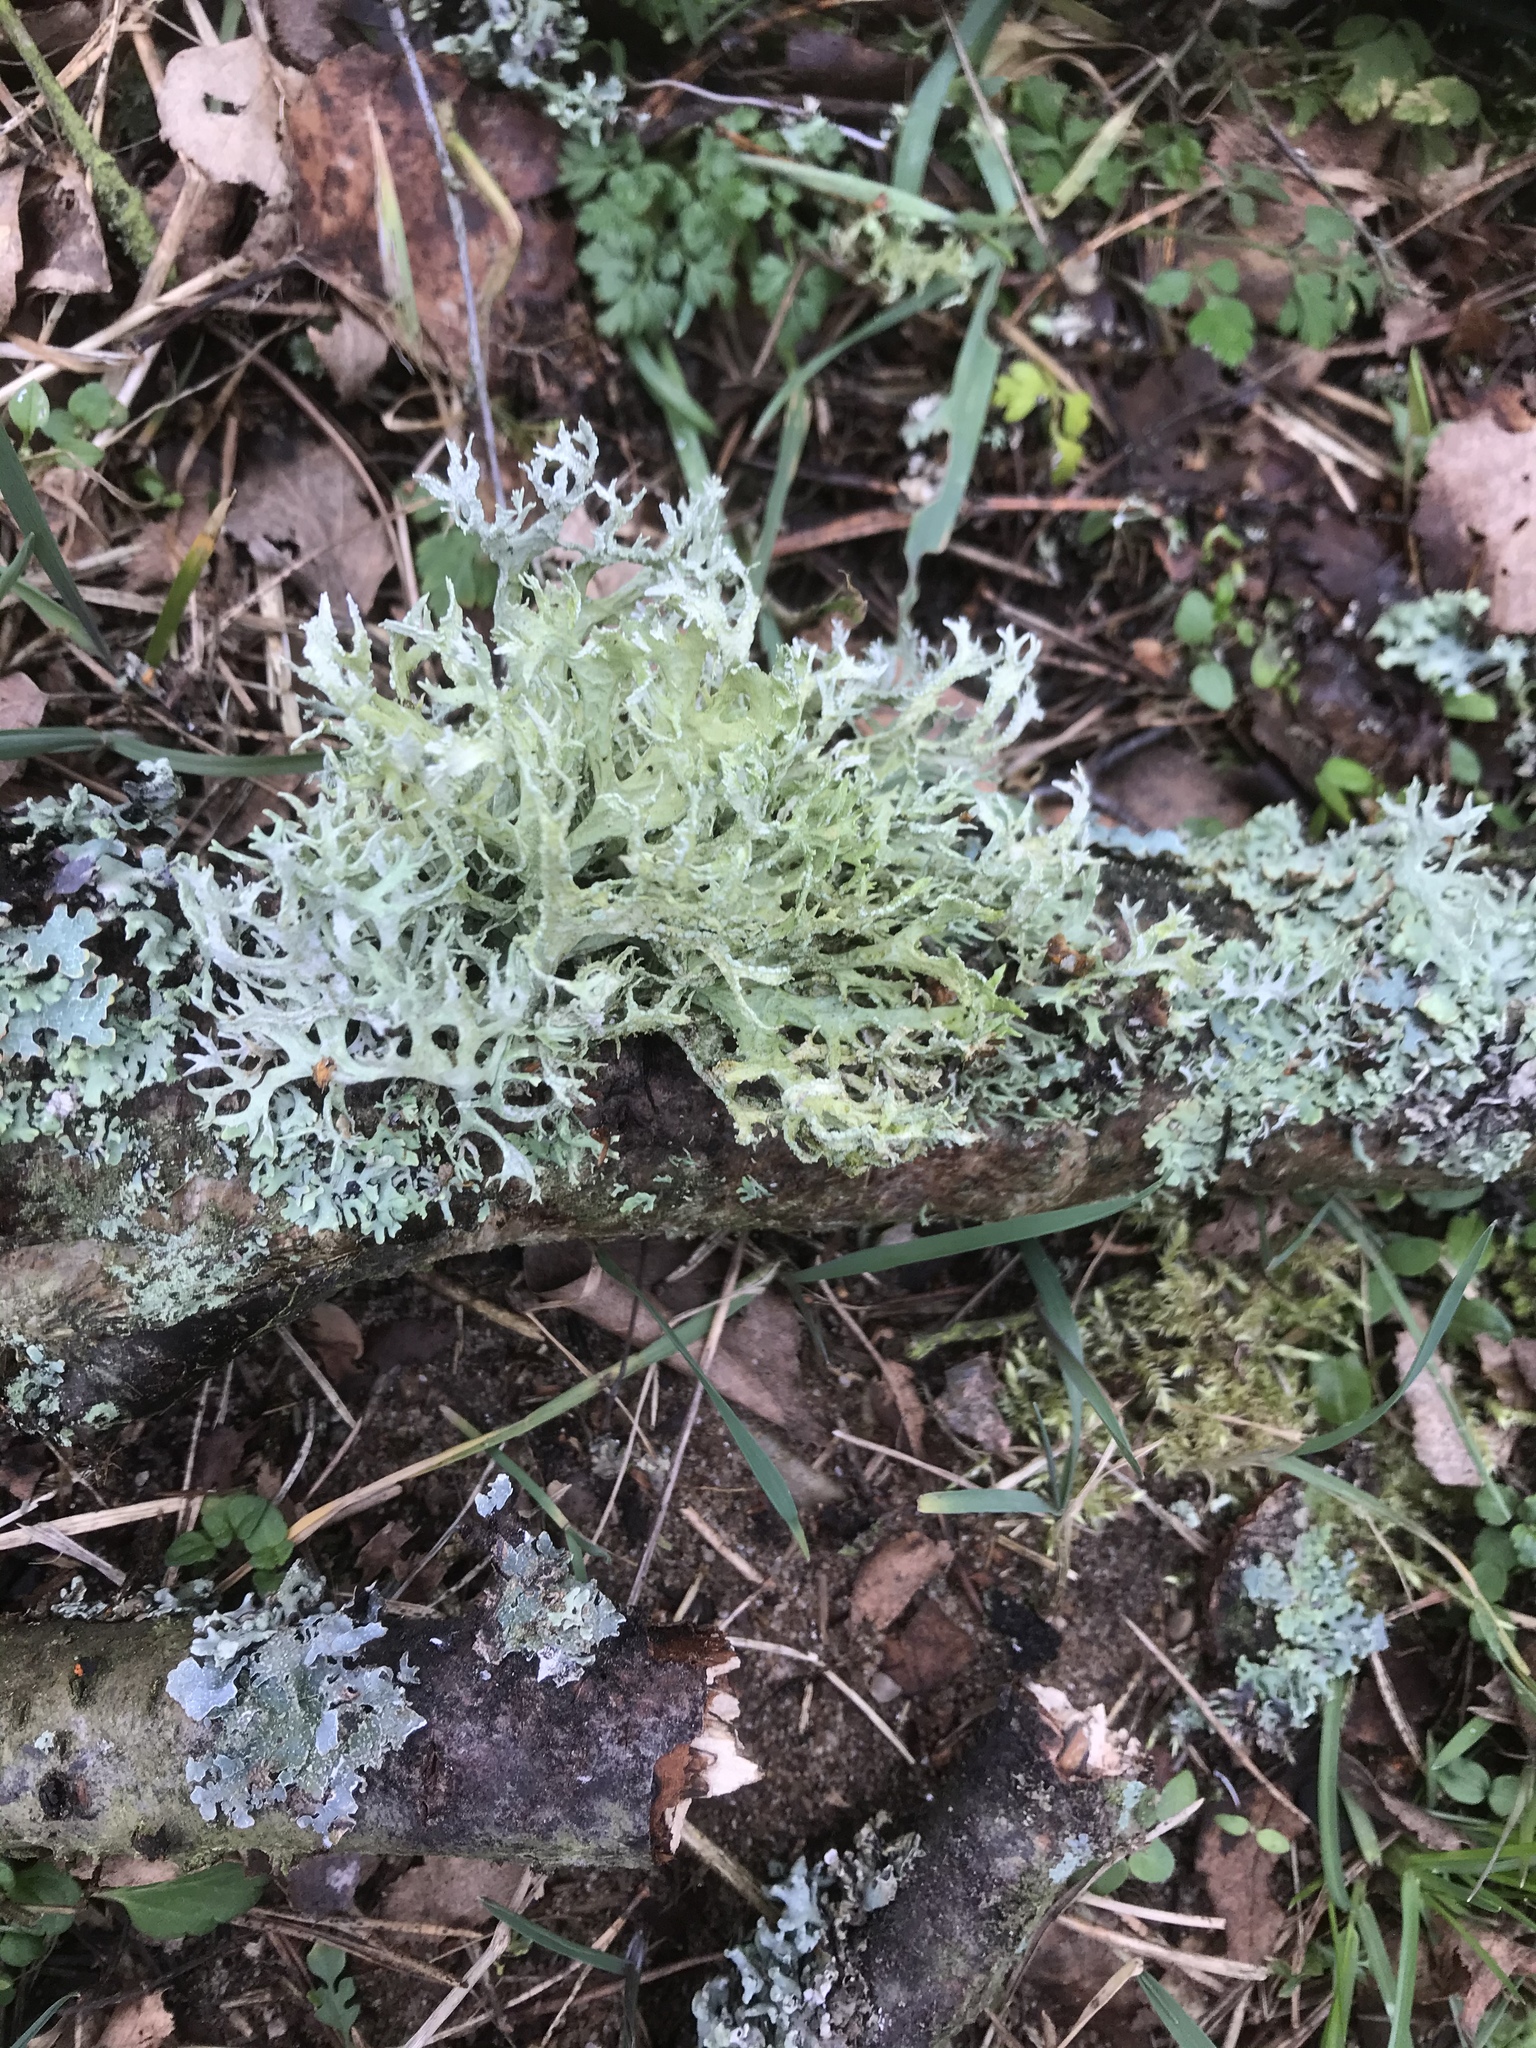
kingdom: Fungi
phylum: Ascomycota
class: Lecanoromycetes
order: Lecanorales
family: Parmeliaceae
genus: Evernia
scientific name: Evernia prunastri
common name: Oak moss
